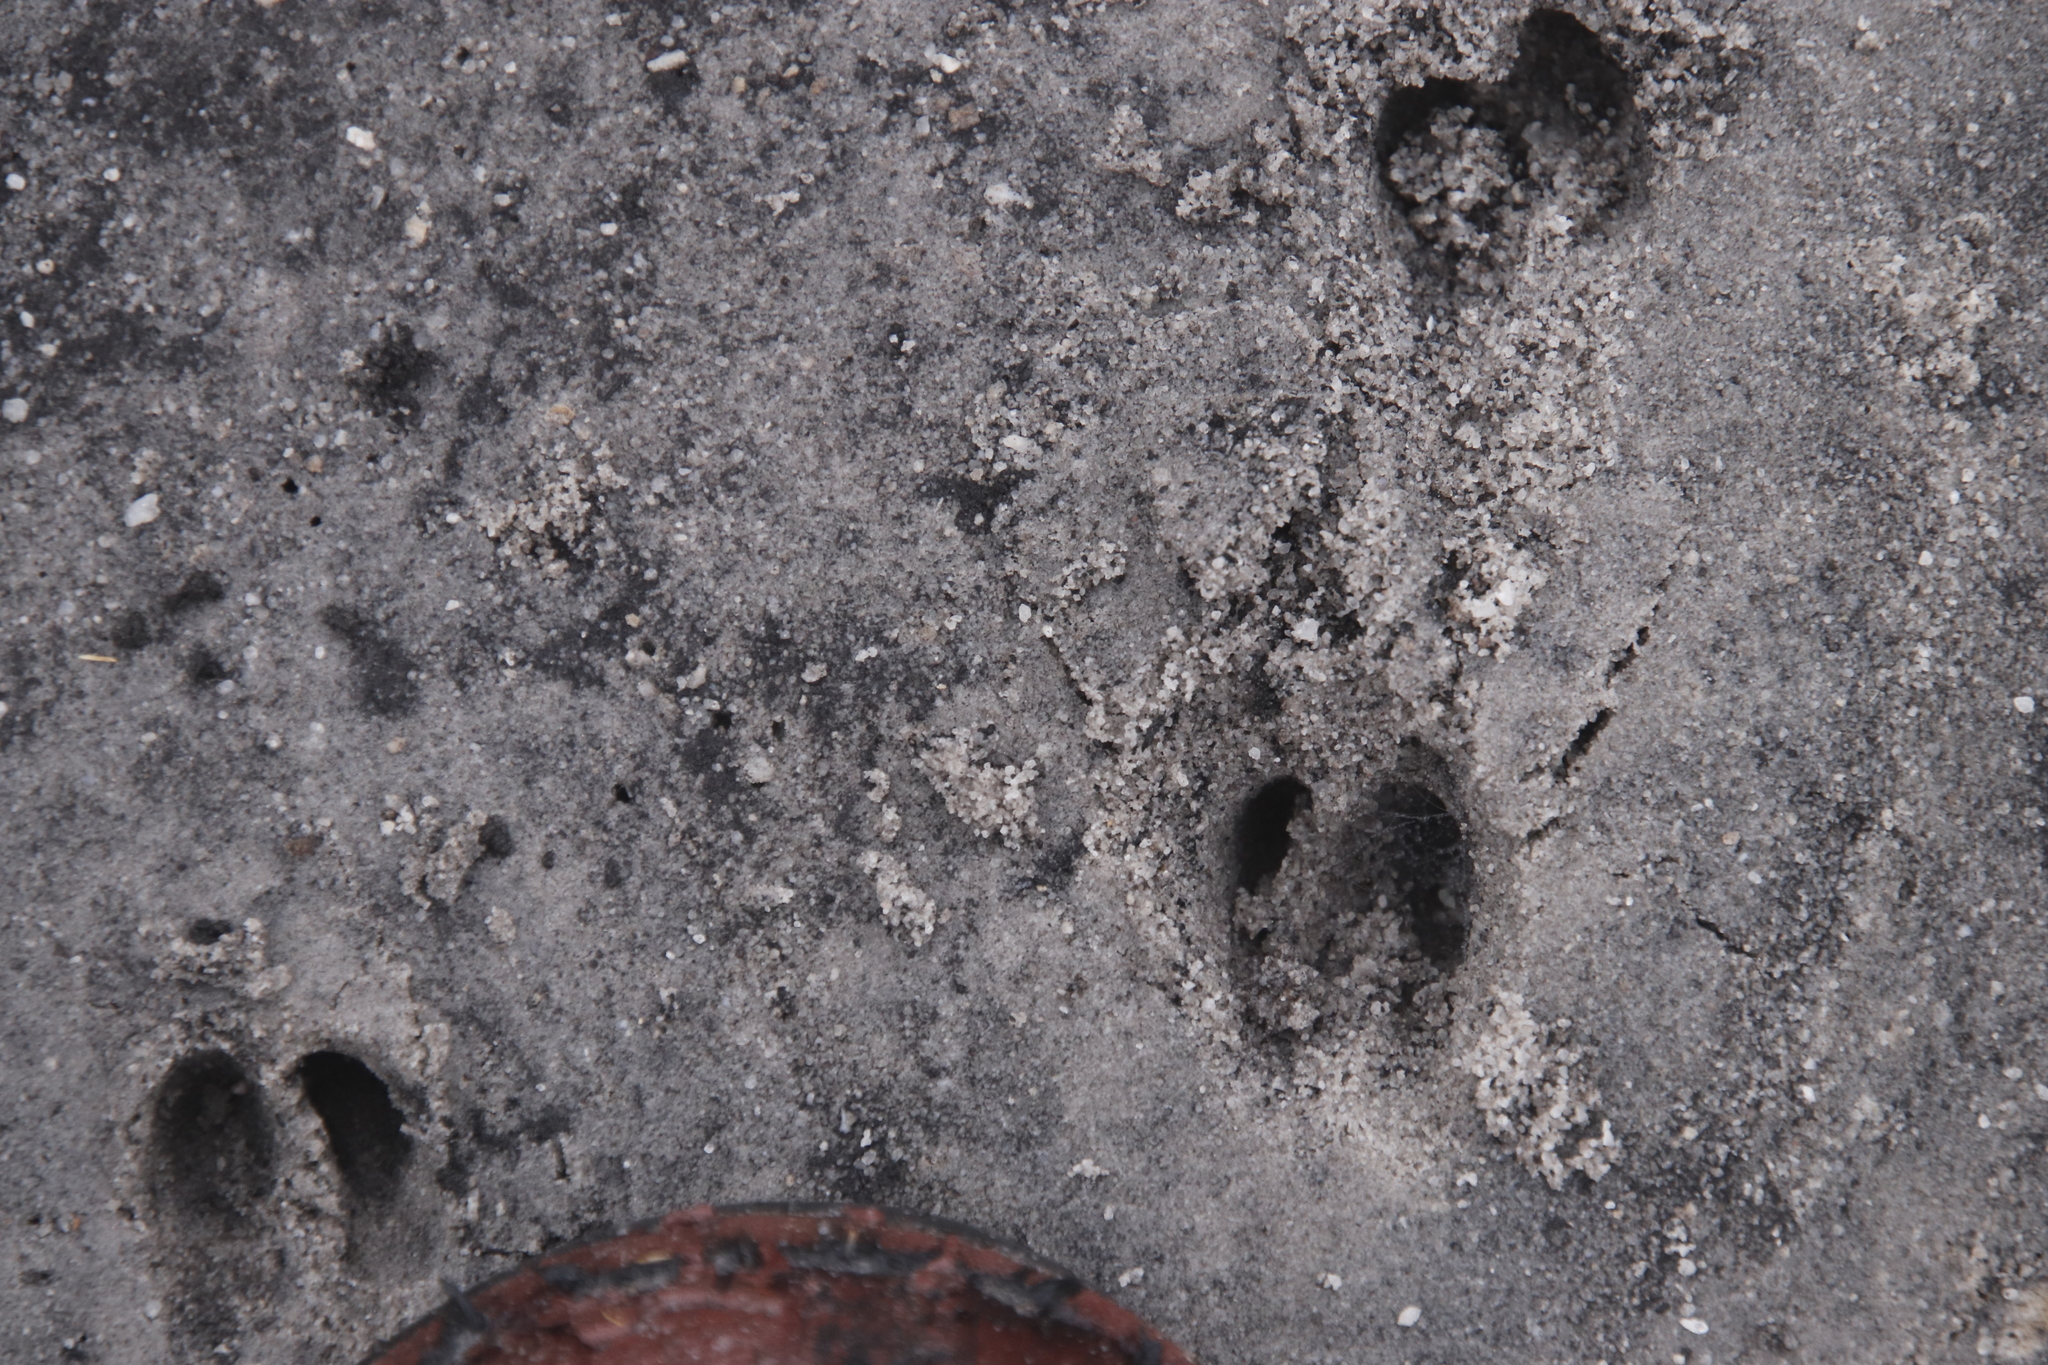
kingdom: Animalia
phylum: Chordata
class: Mammalia
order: Artiodactyla
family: Bovidae
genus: Oreotragus
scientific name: Oreotragus oreotragus
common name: Klipspringer
